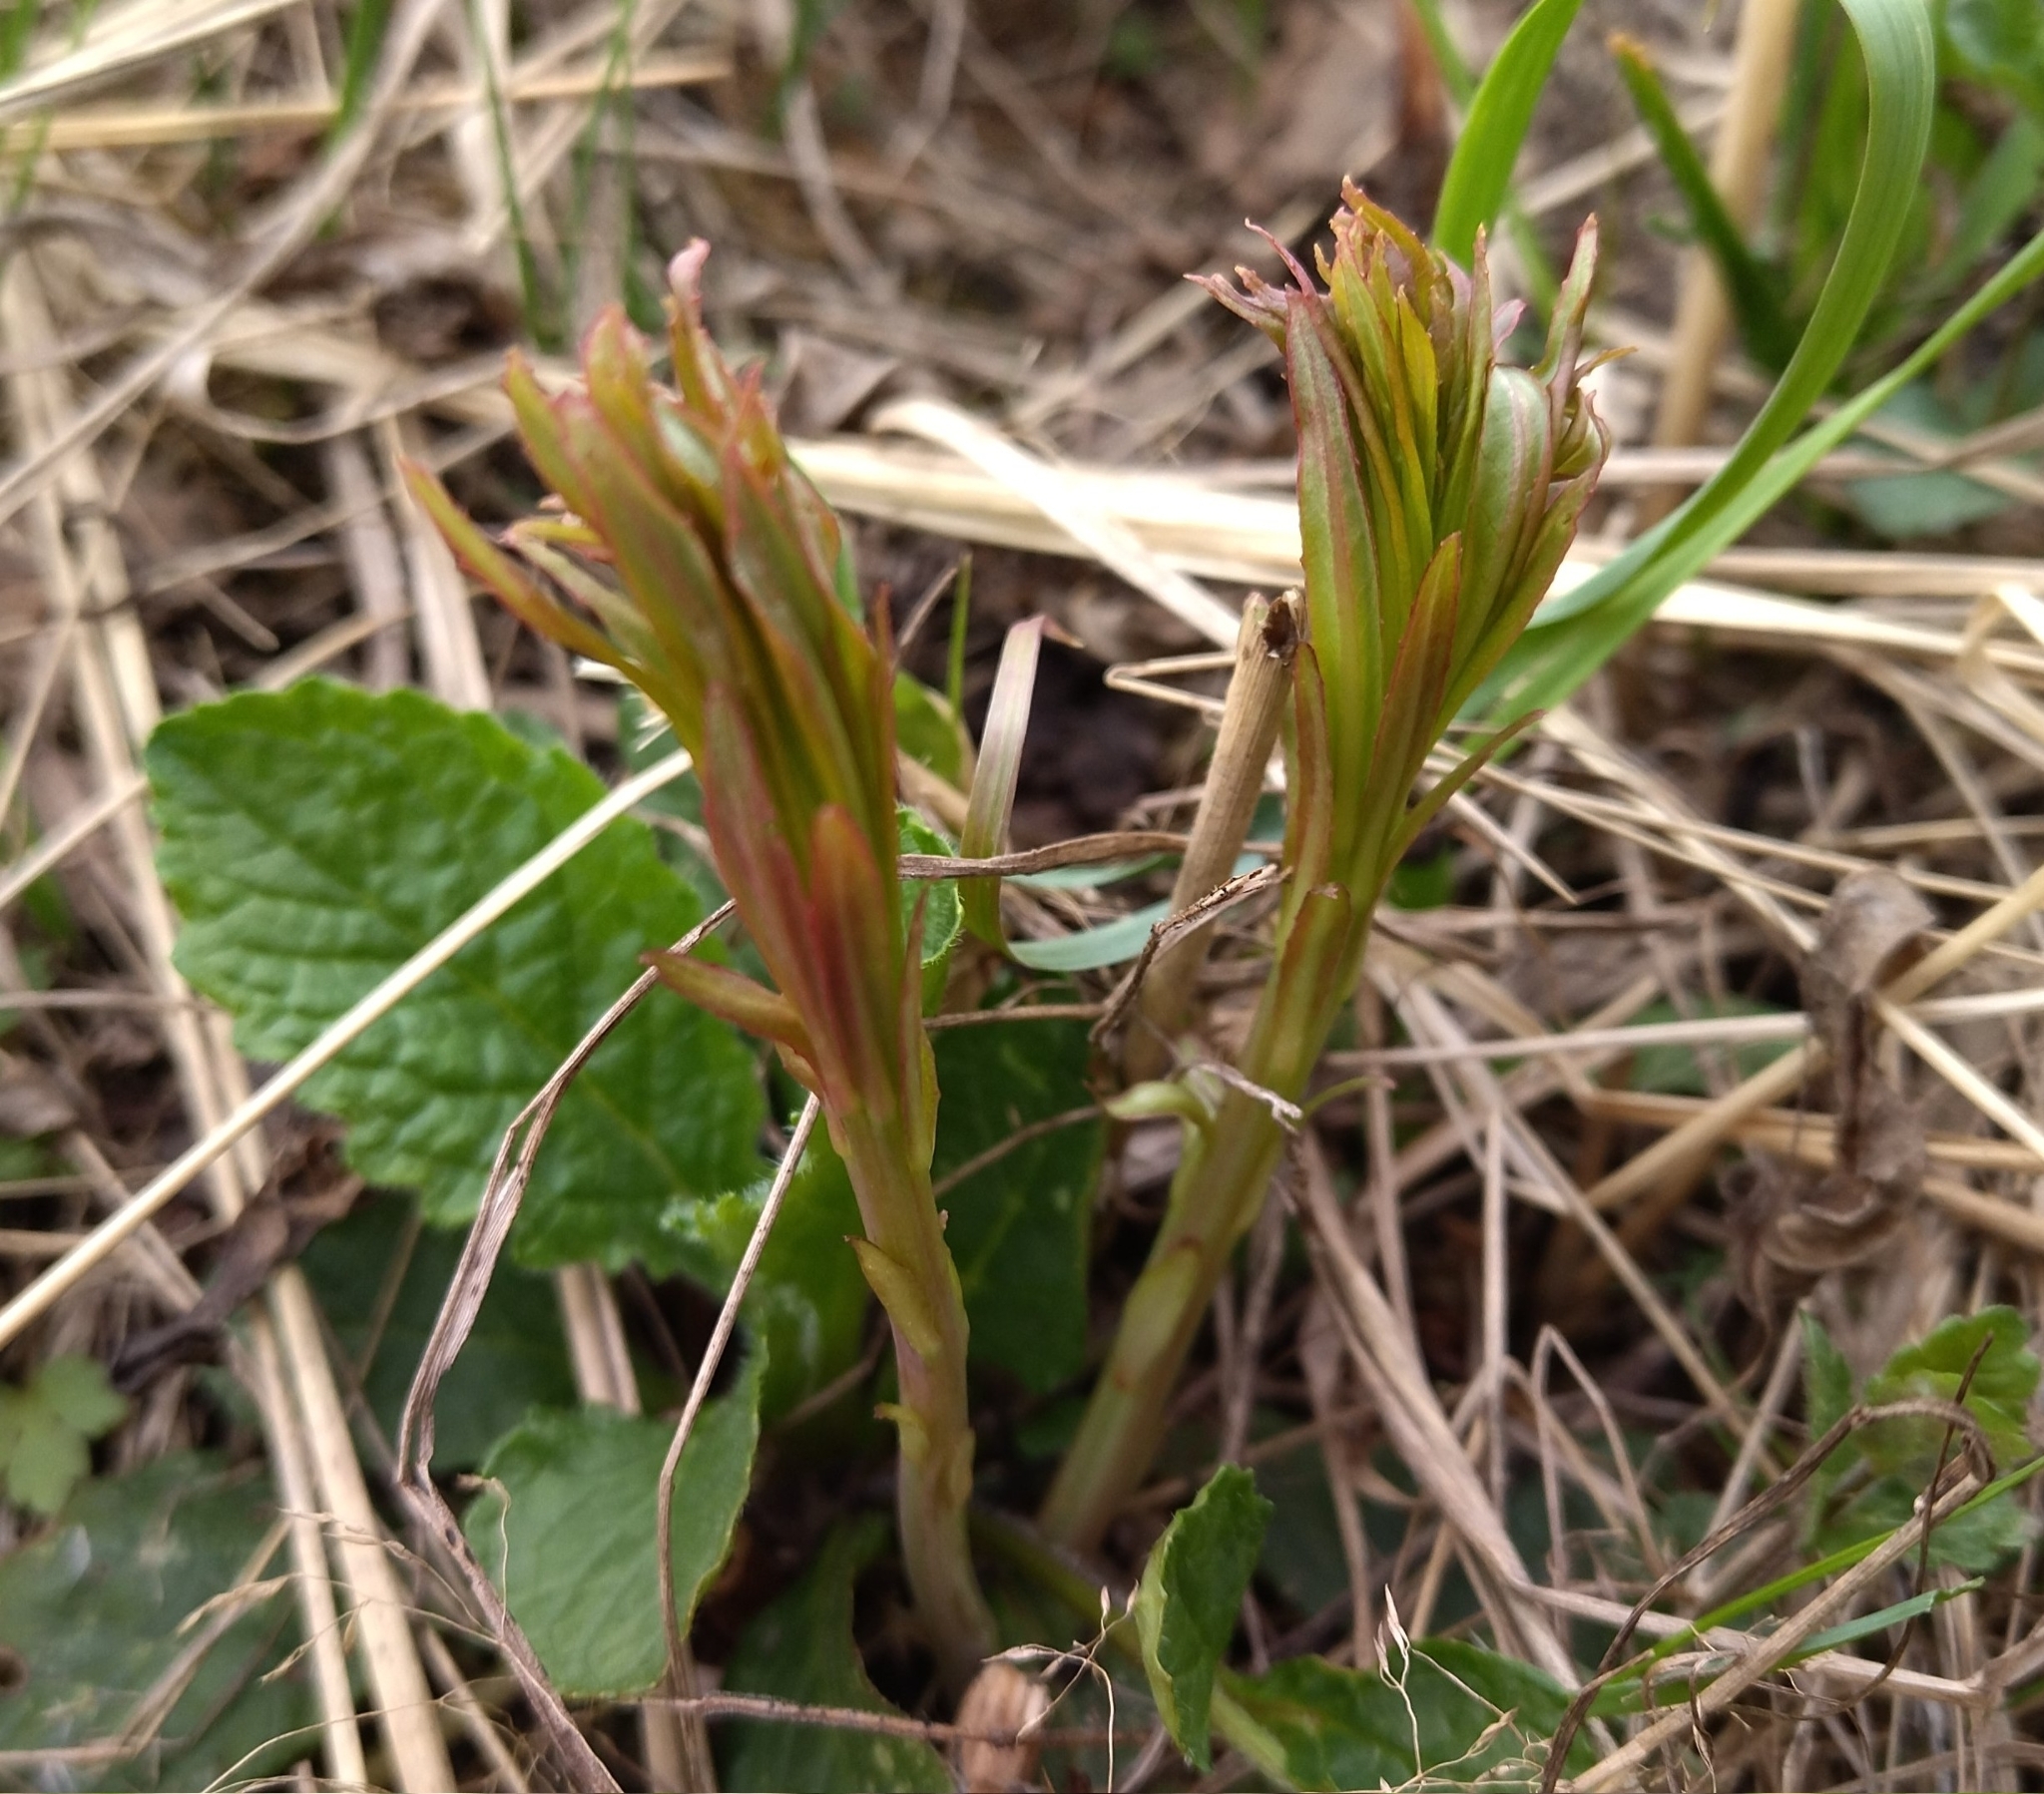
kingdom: Plantae
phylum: Tracheophyta
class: Magnoliopsida
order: Myrtales
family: Onagraceae
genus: Chamaenerion
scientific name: Chamaenerion angustifolium
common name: Fireweed
